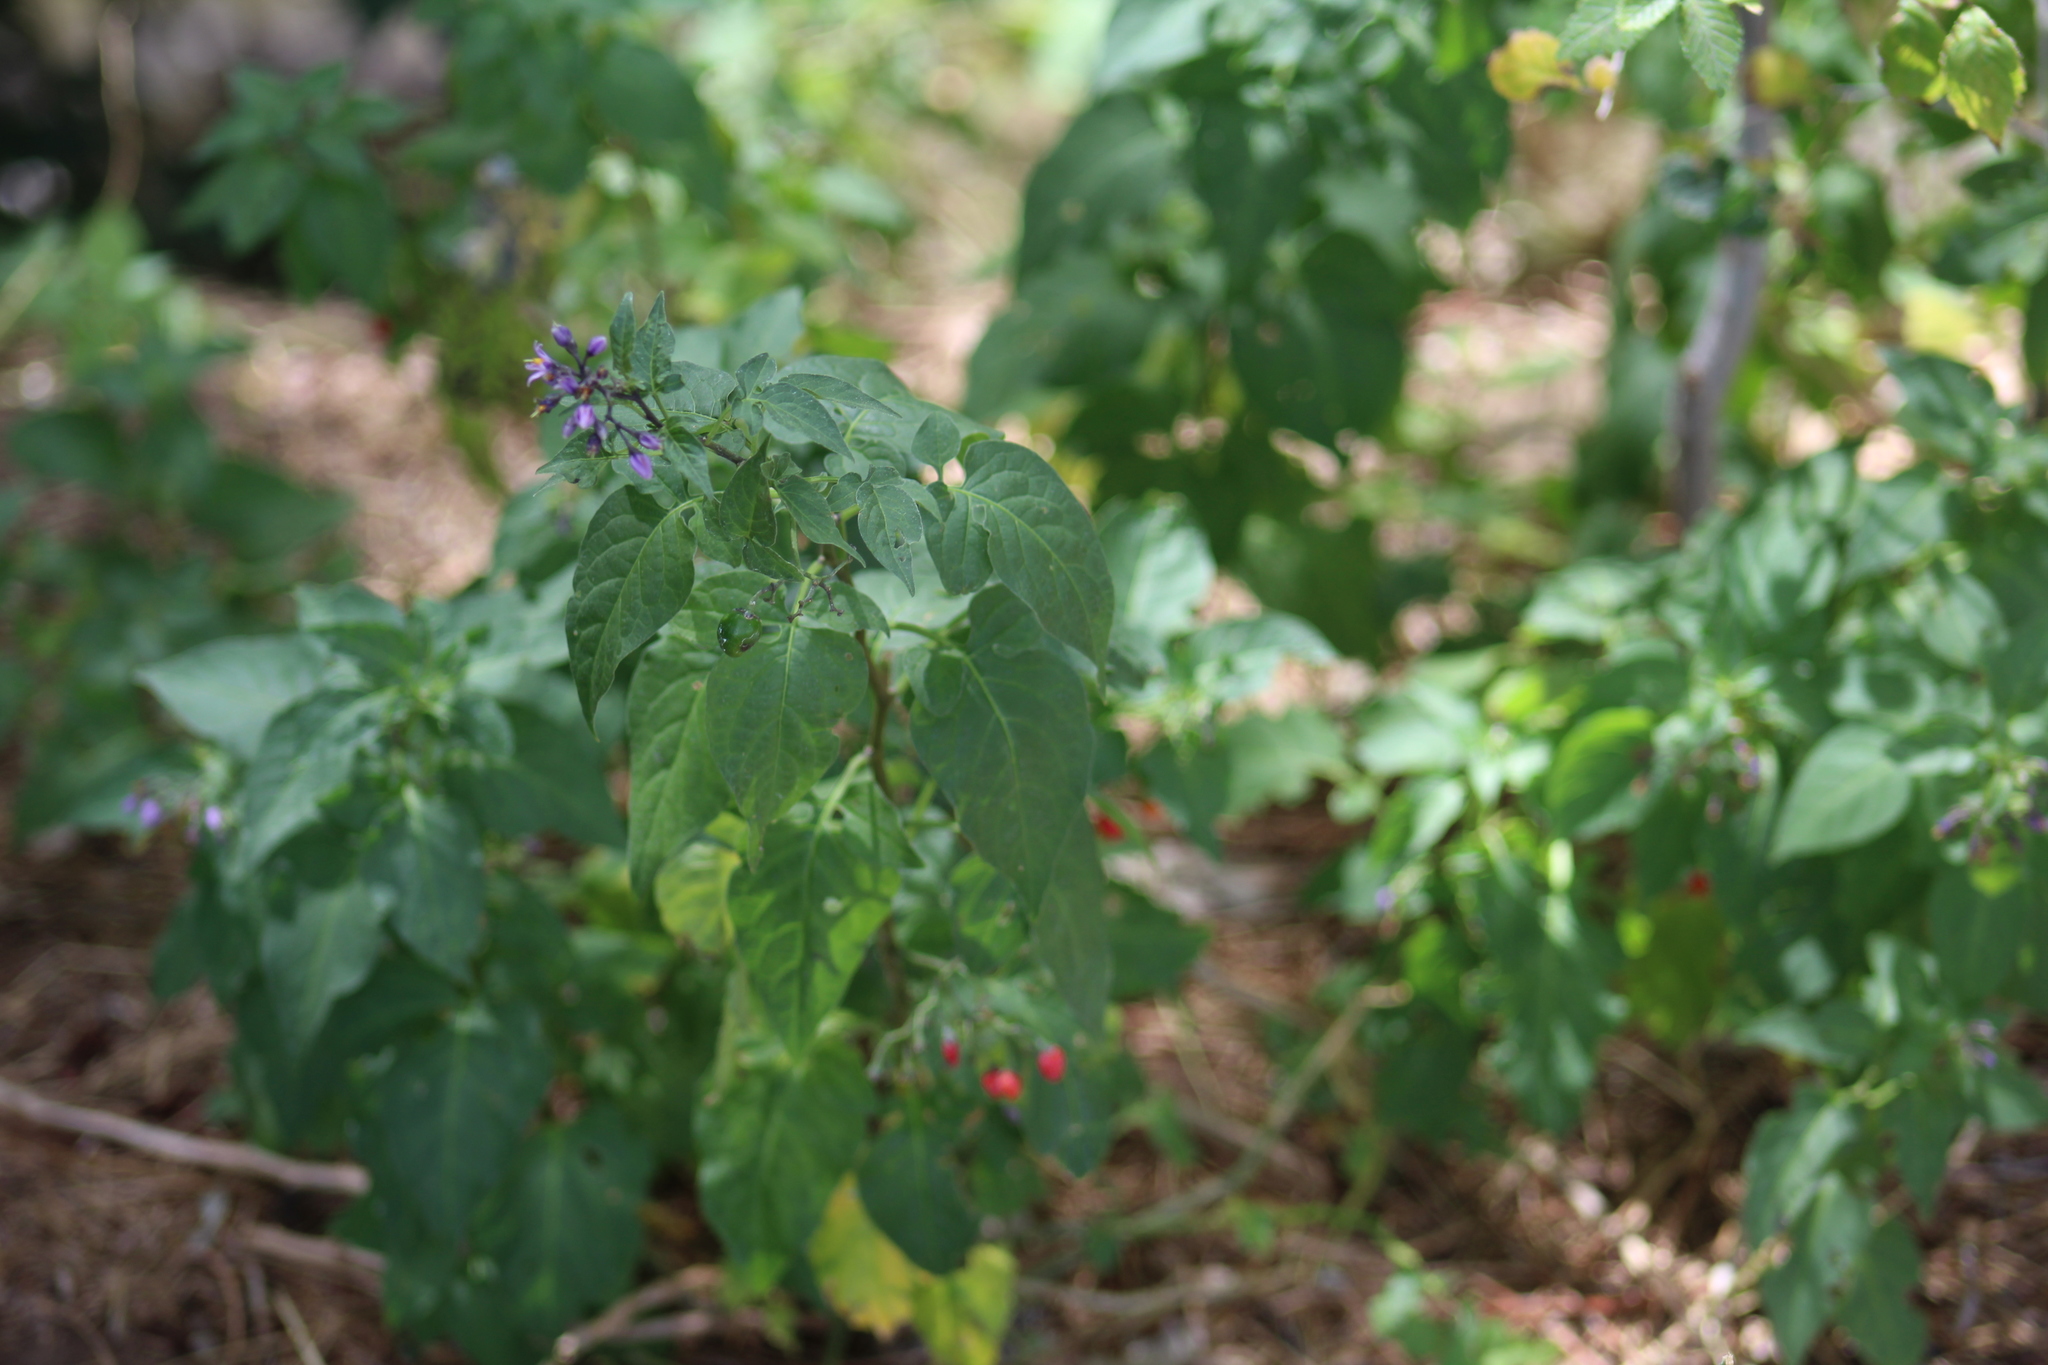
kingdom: Plantae
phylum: Tracheophyta
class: Magnoliopsida
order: Solanales
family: Solanaceae
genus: Solanum
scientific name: Solanum dulcamara
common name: Climbing nightshade
